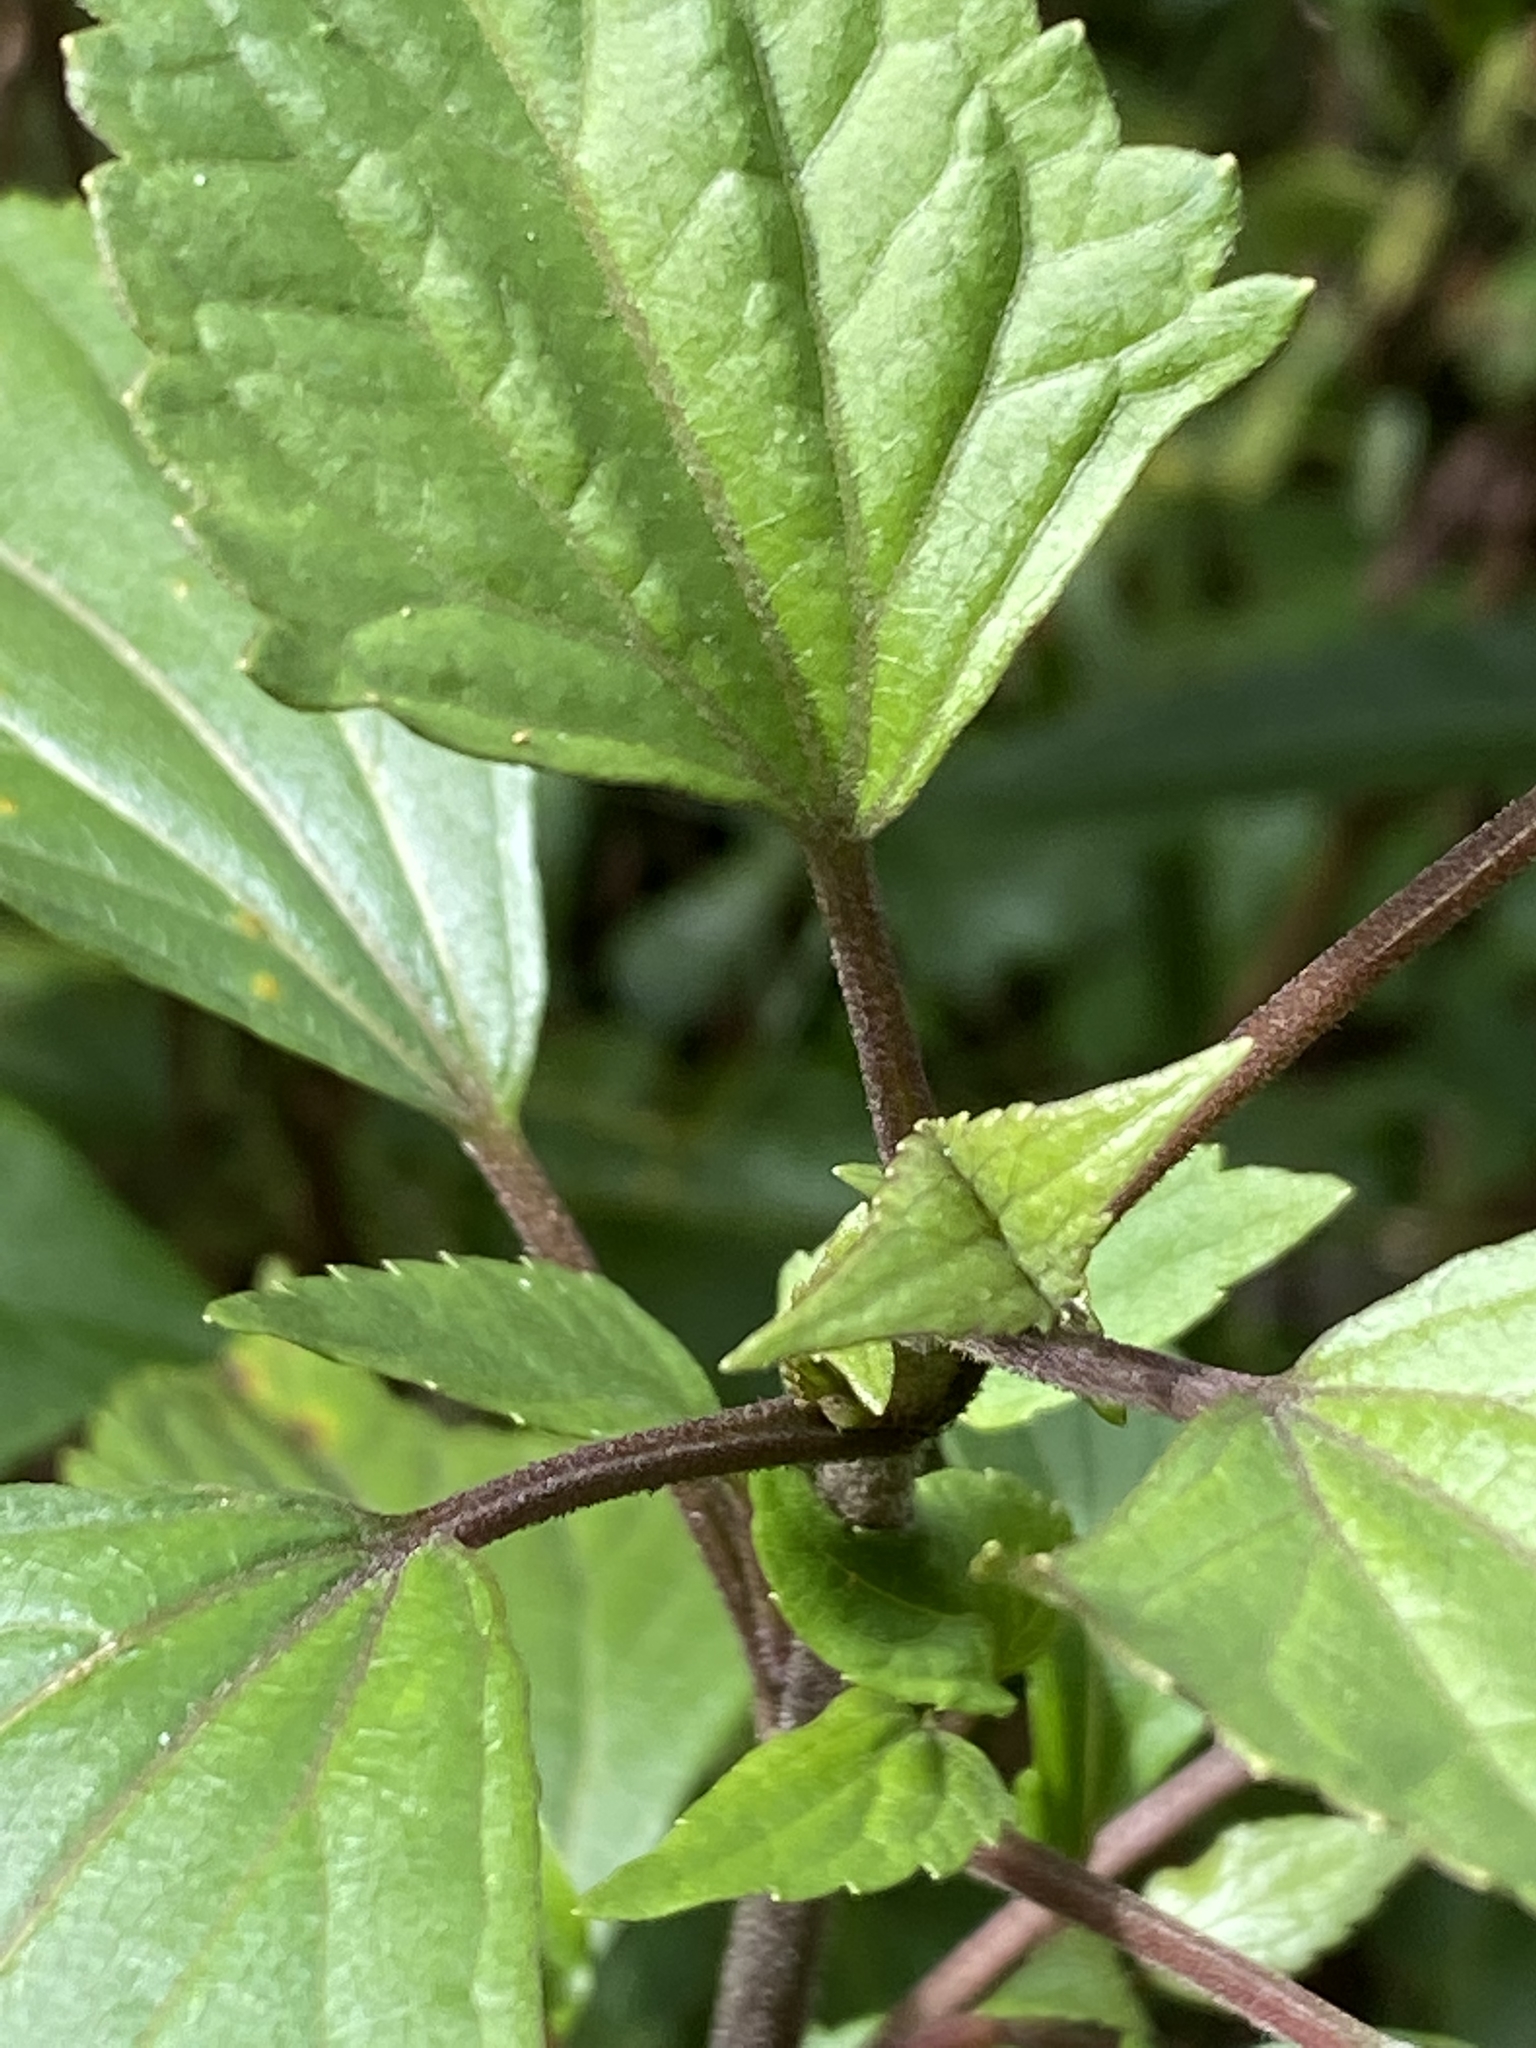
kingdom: Plantae
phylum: Tracheophyta
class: Magnoliopsida
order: Asterales
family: Asteraceae
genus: Ageratina
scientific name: Ageratina adenophora
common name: Sticky snakeroot
